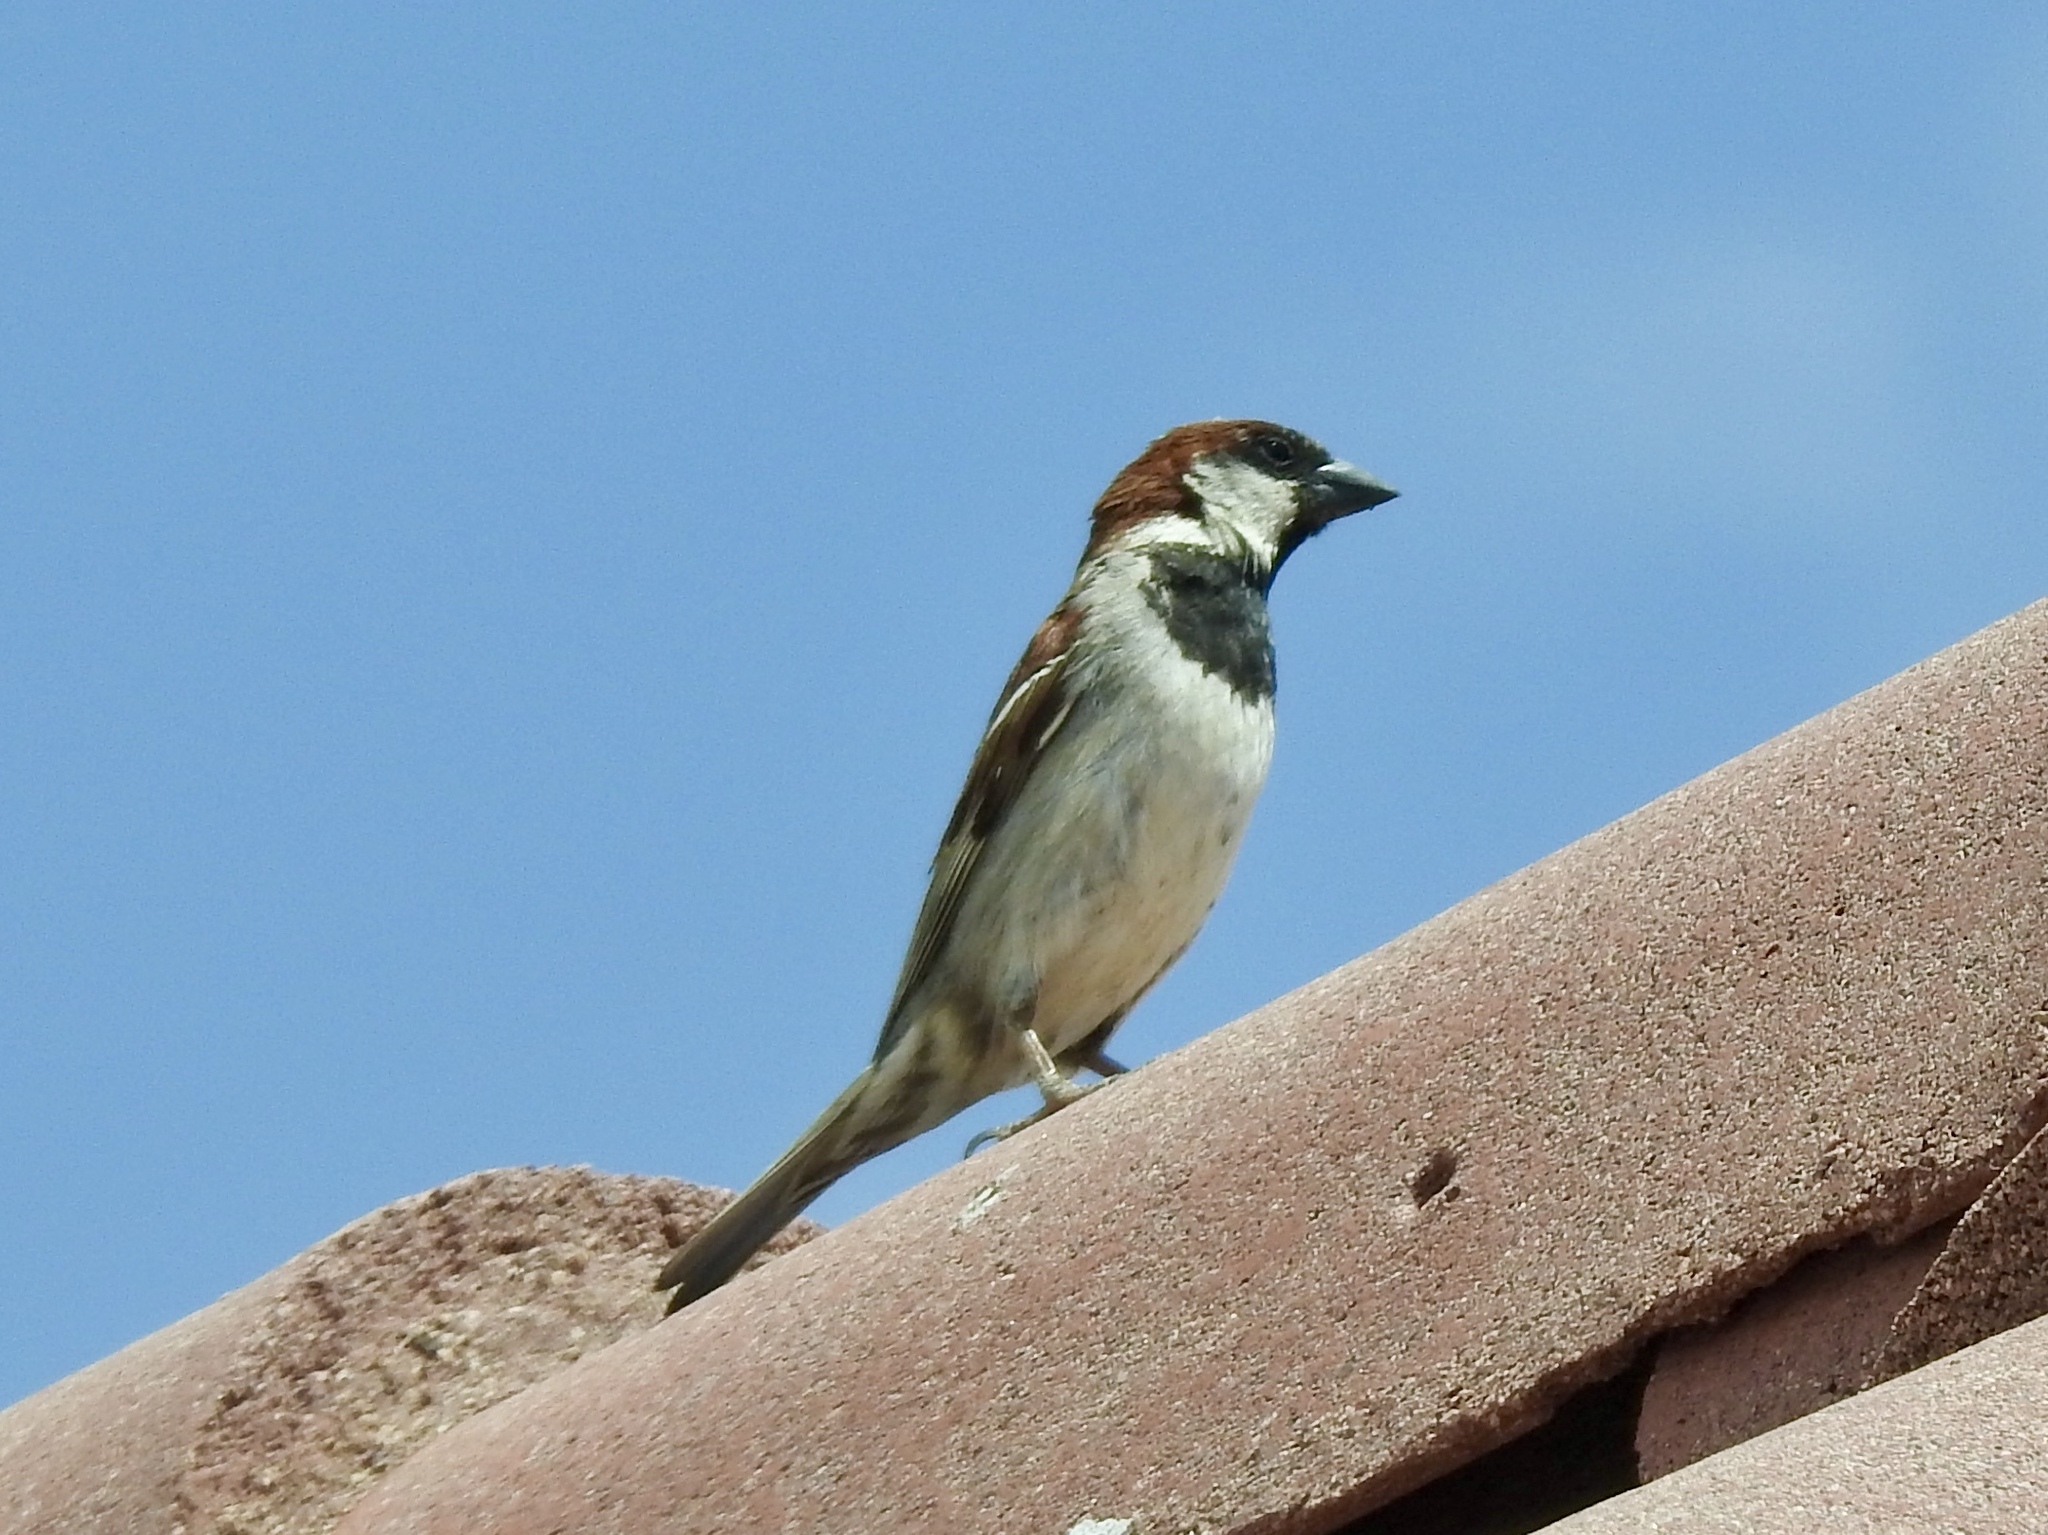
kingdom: Animalia
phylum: Chordata
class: Aves
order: Passeriformes
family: Passeridae
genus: Passer
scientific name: Passer domesticus
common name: House sparrow
